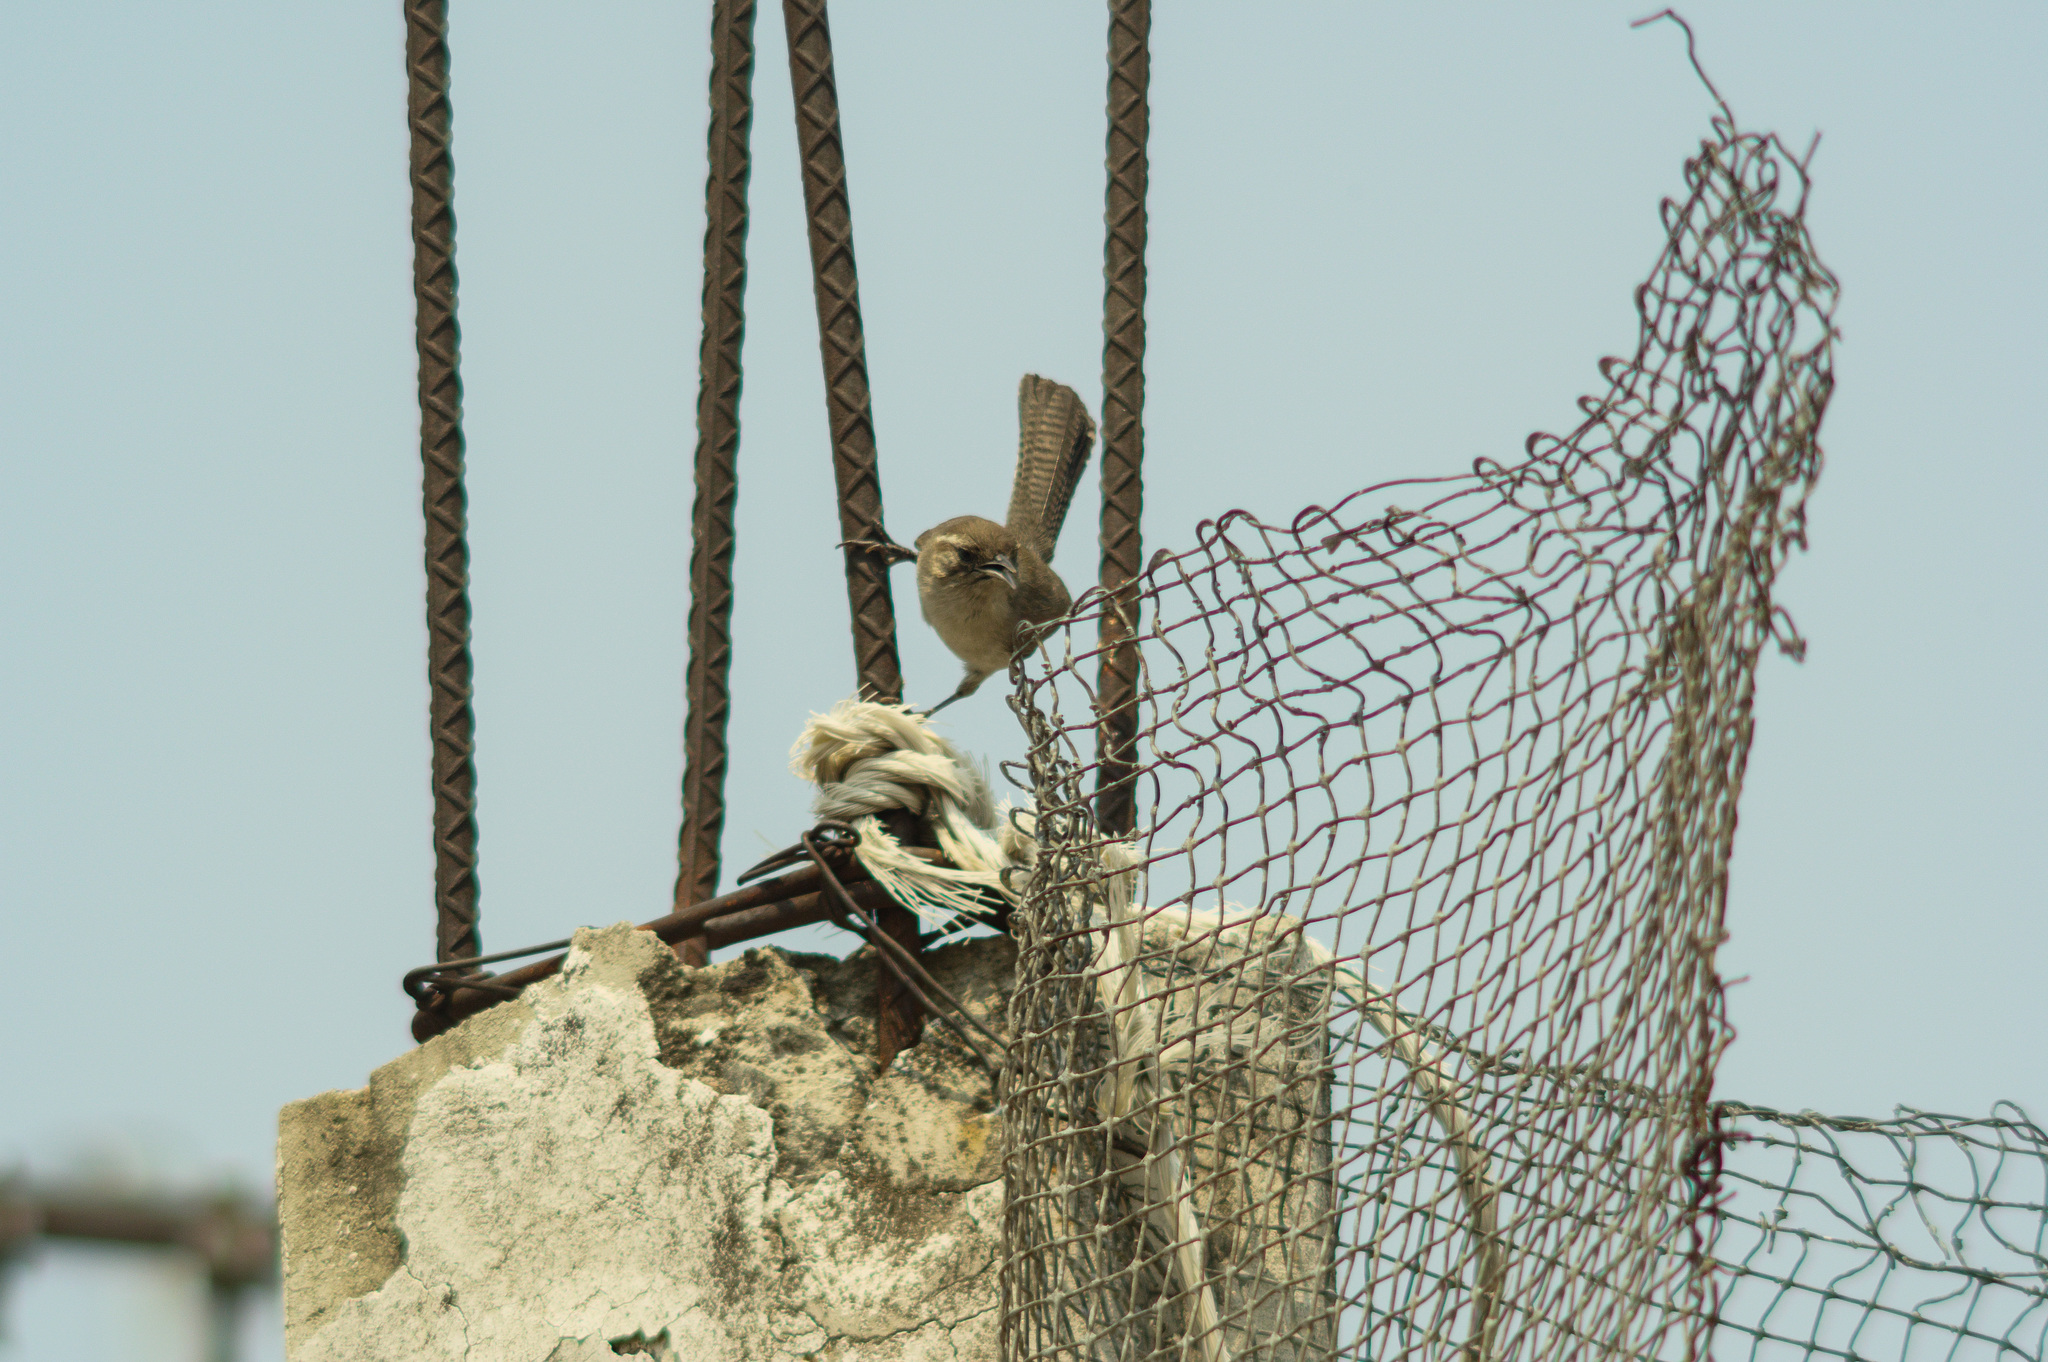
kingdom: Animalia
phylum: Chordata
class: Aves
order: Passeriformes
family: Troglodytidae
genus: Thryomanes
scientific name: Thryomanes bewickii
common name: Bewick's wren
